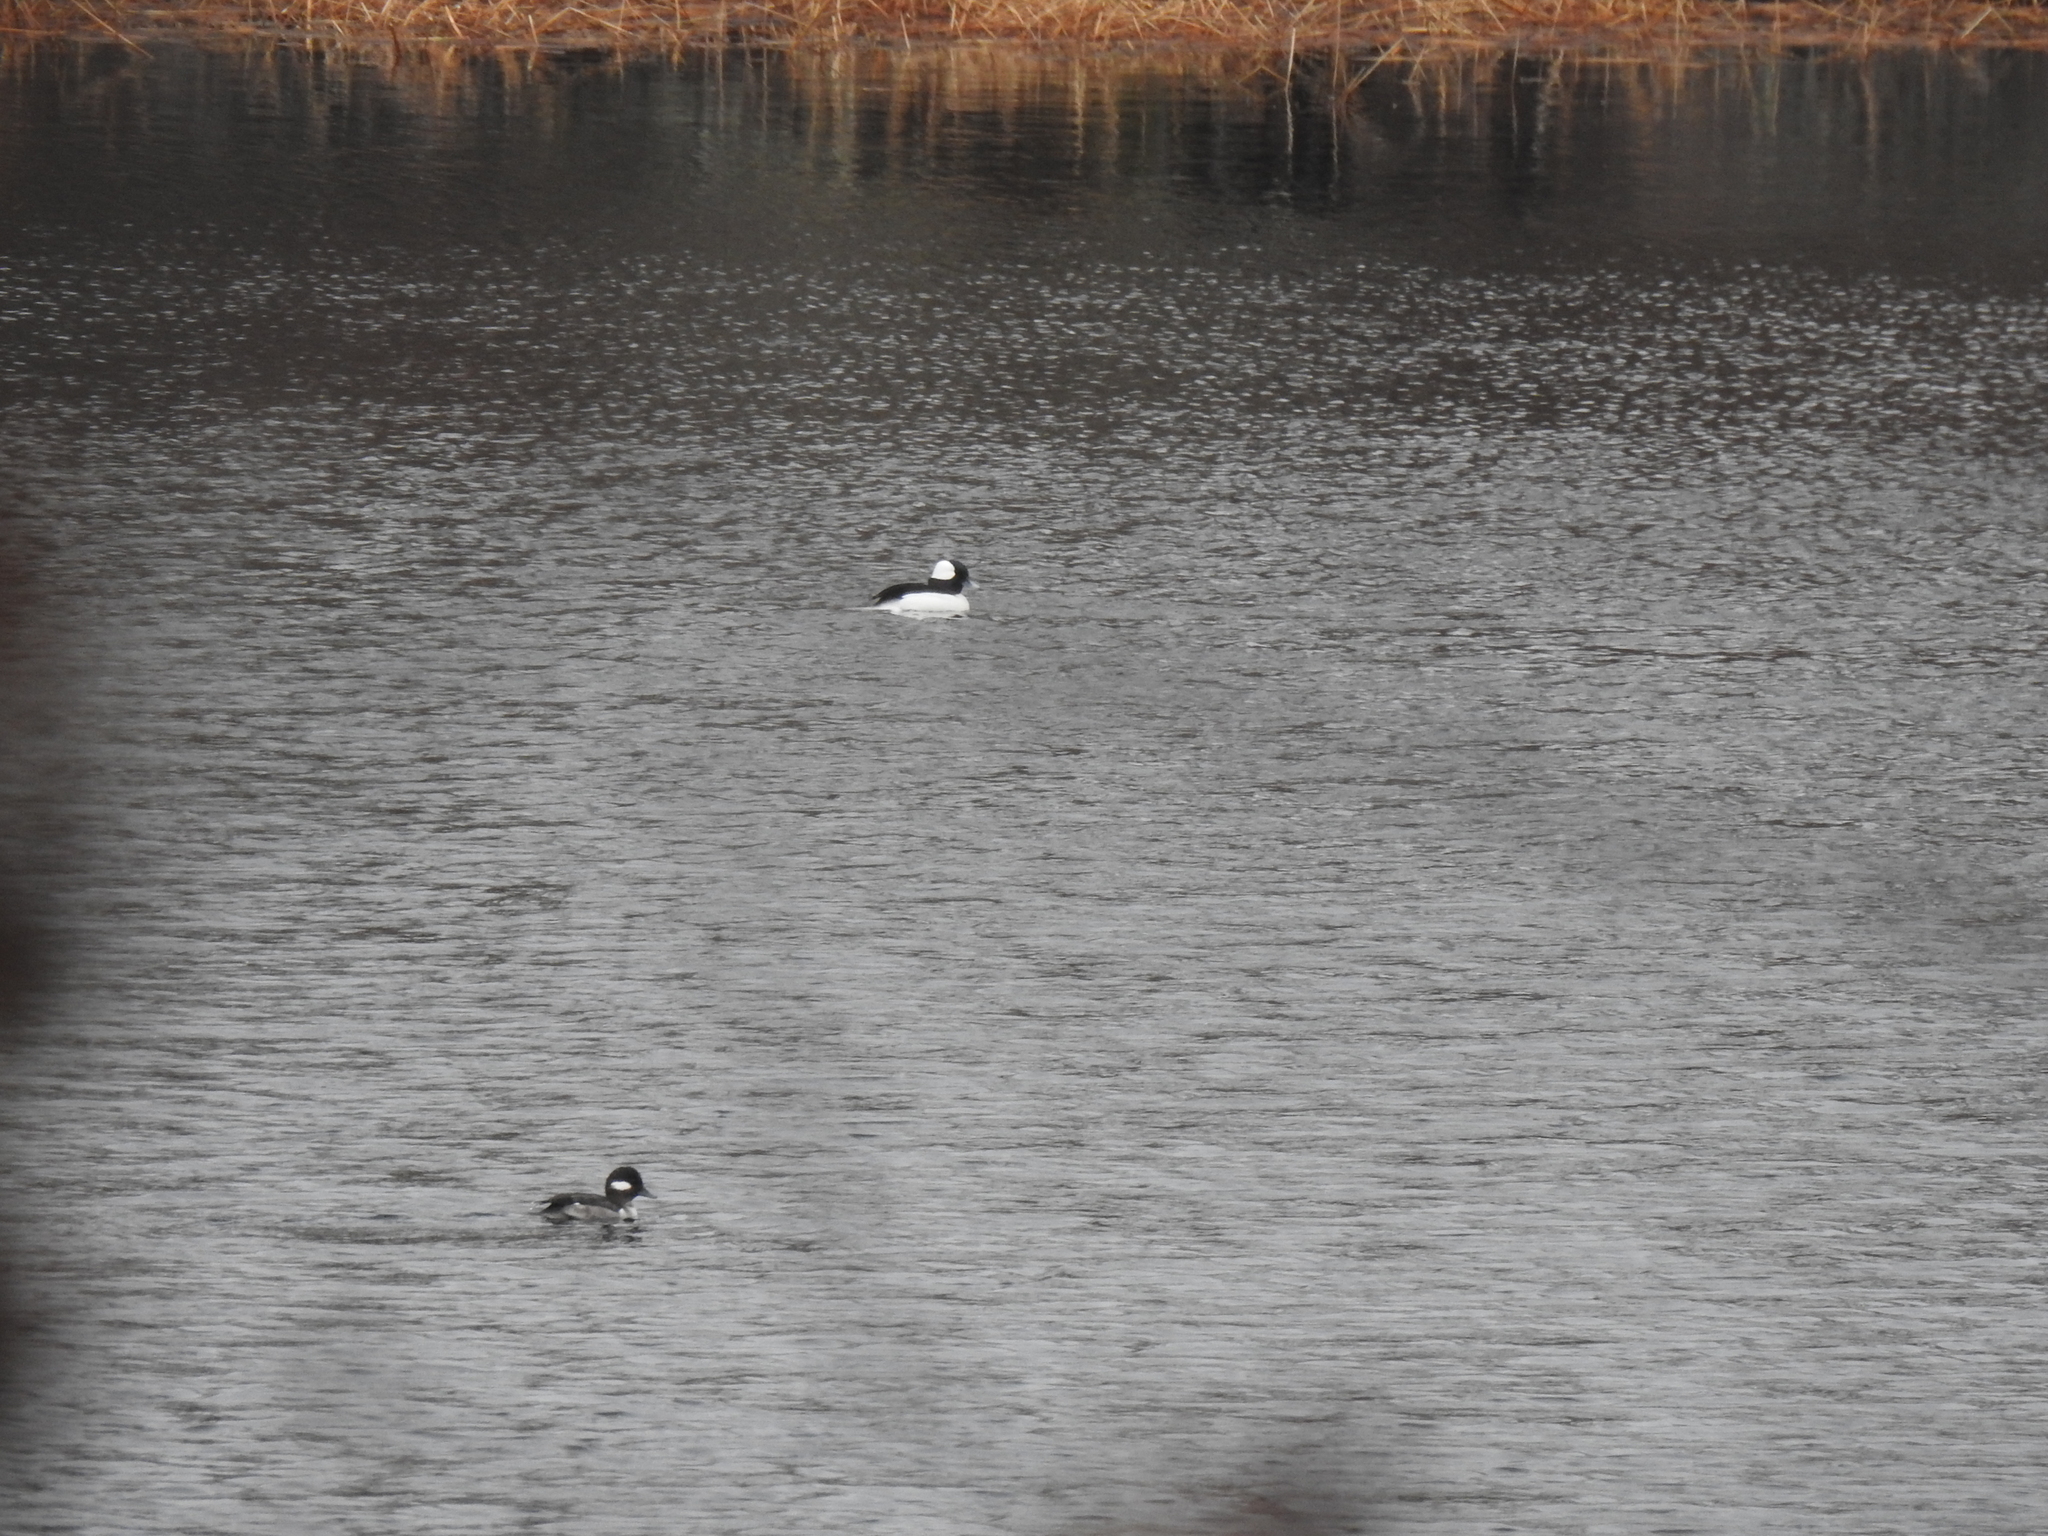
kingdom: Animalia
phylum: Chordata
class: Aves
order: Anseriformes
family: Anatidae
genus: Bucephala
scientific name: Bucephala albeola
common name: Bufflehead
